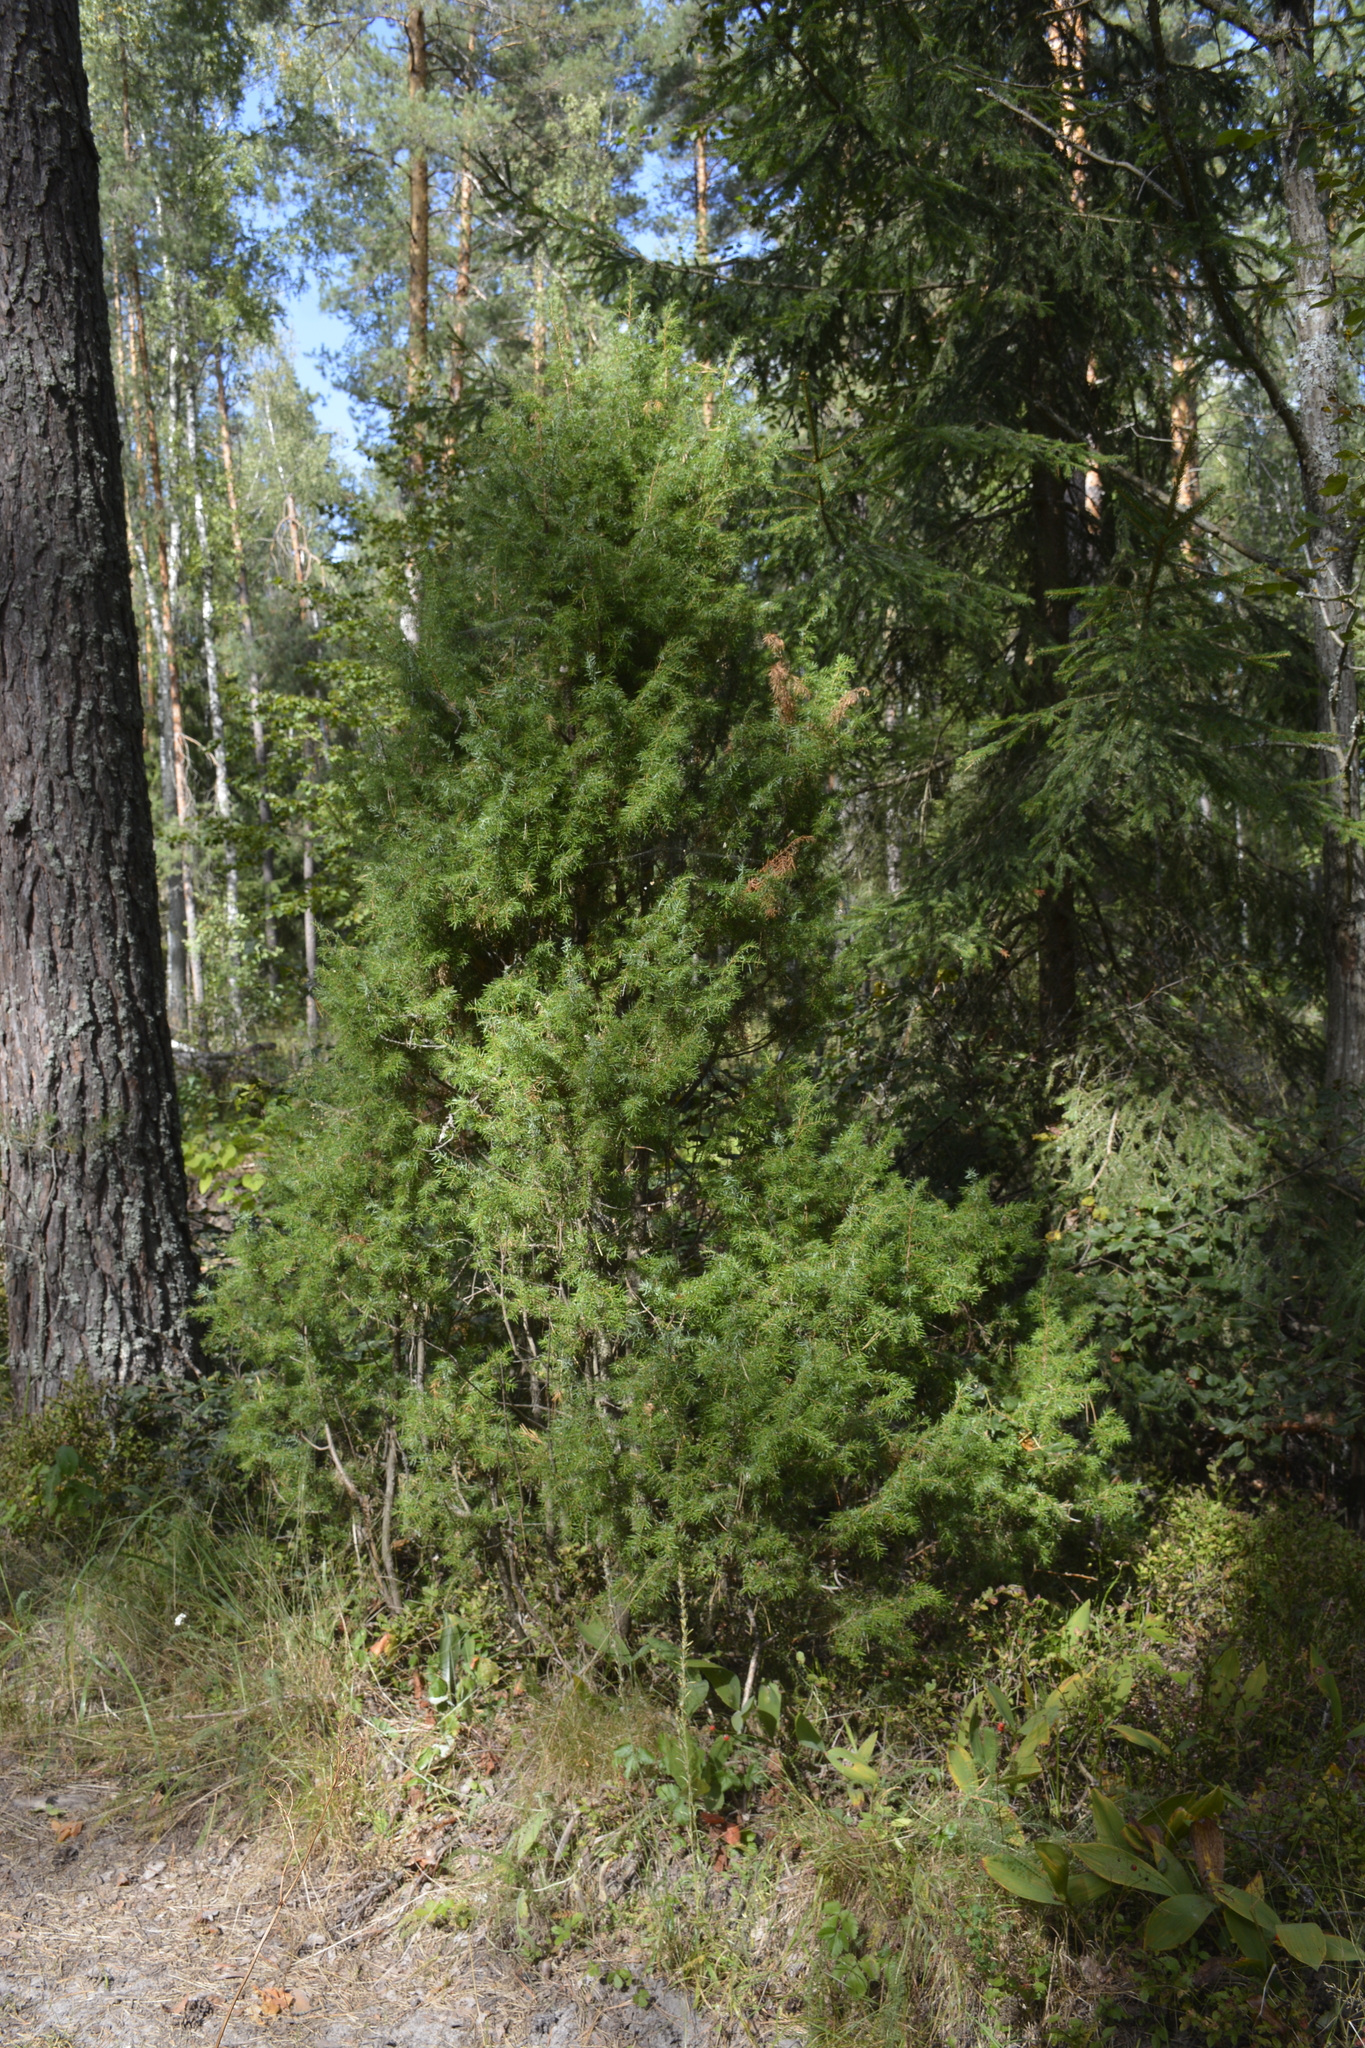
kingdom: Plantae
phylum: Tracheophyta
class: Pinopsida
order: Pinales
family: Cupressaceae
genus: Juniperus
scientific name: Juniperus communis
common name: Common juniper
